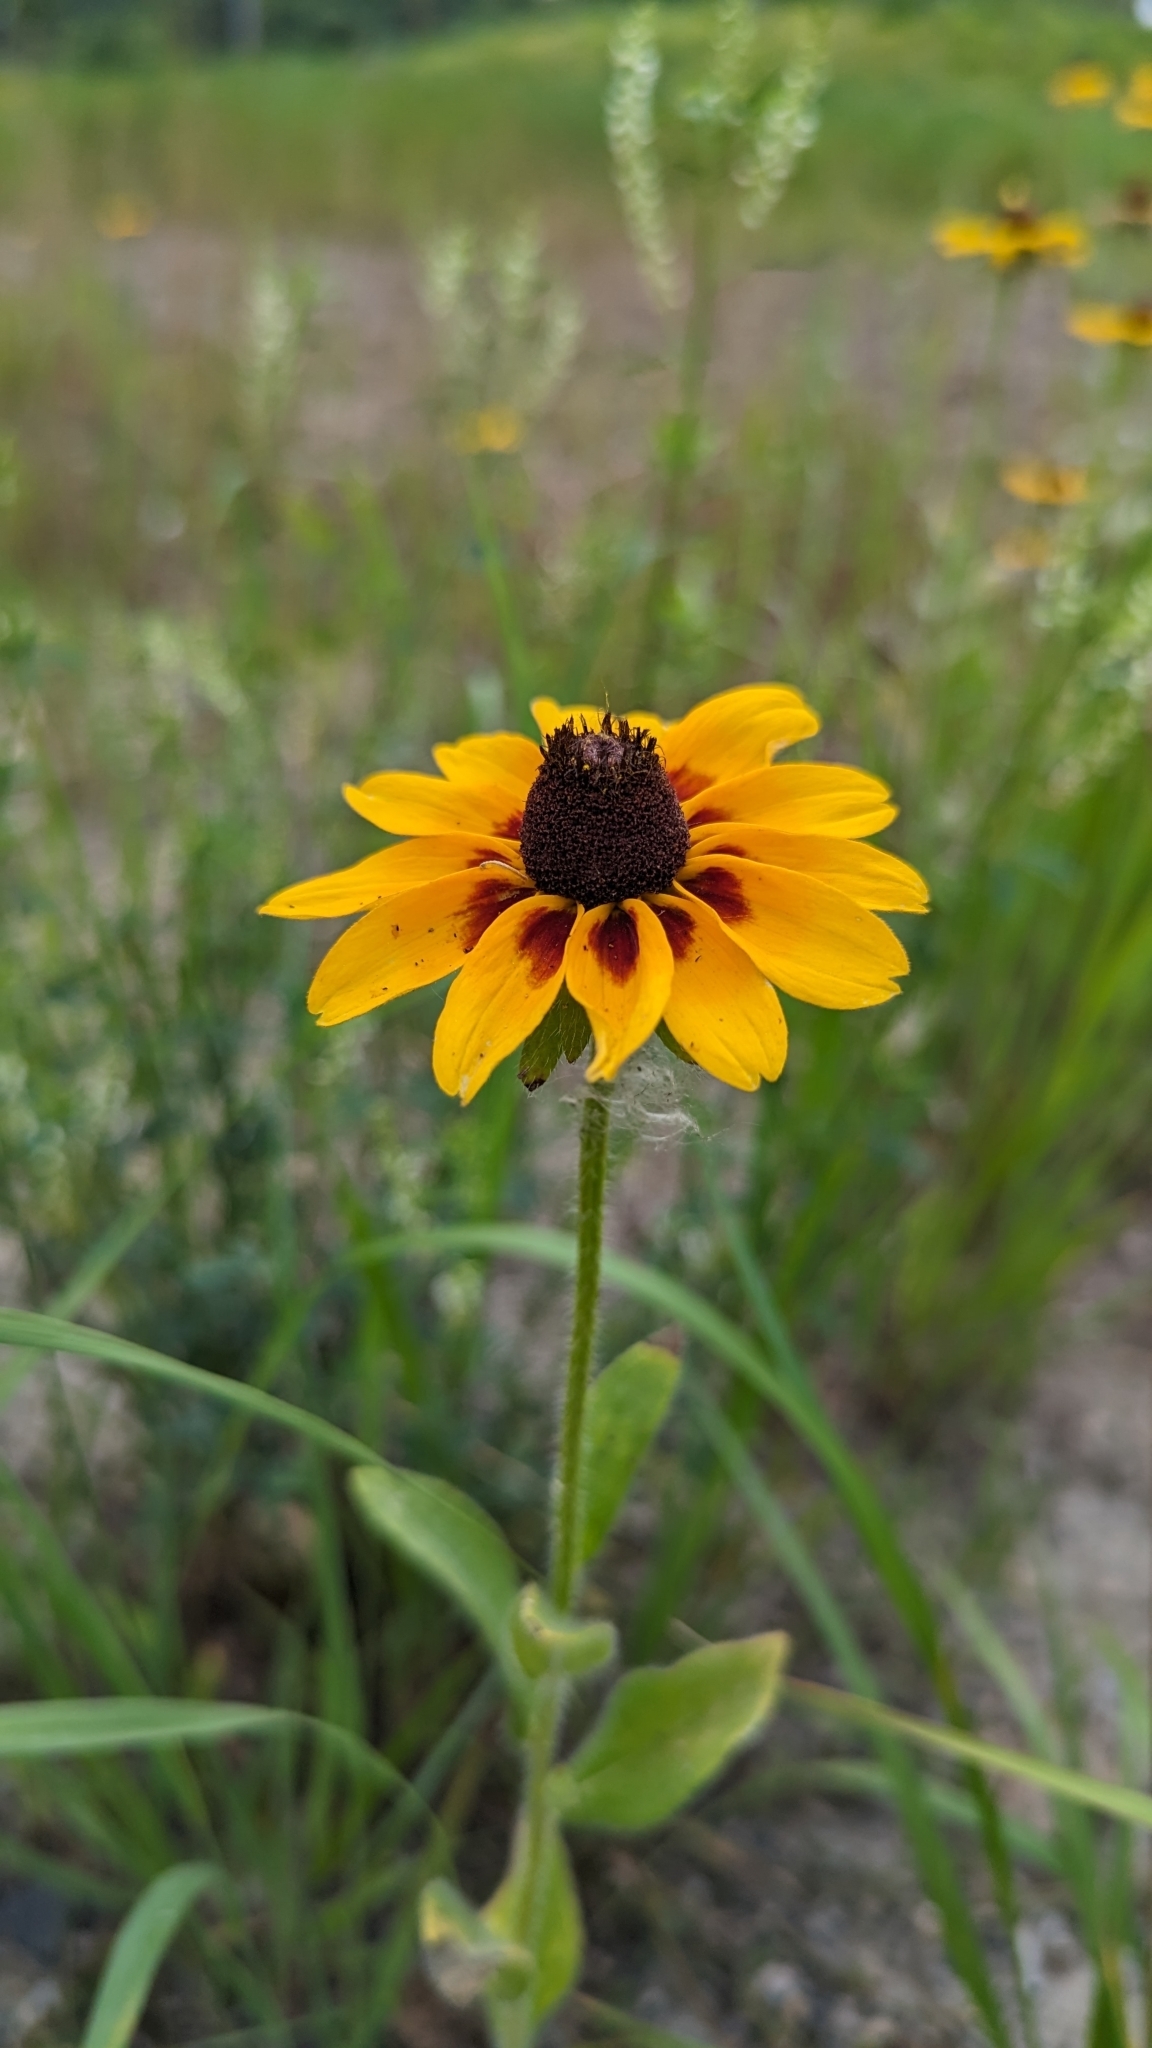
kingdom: Plantae
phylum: Tracheophyta
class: Magnoliopsida
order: Asterales
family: Asteraceae
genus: Rudbeckia
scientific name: Rudbeckia hirta
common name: Black-eyed-susan
